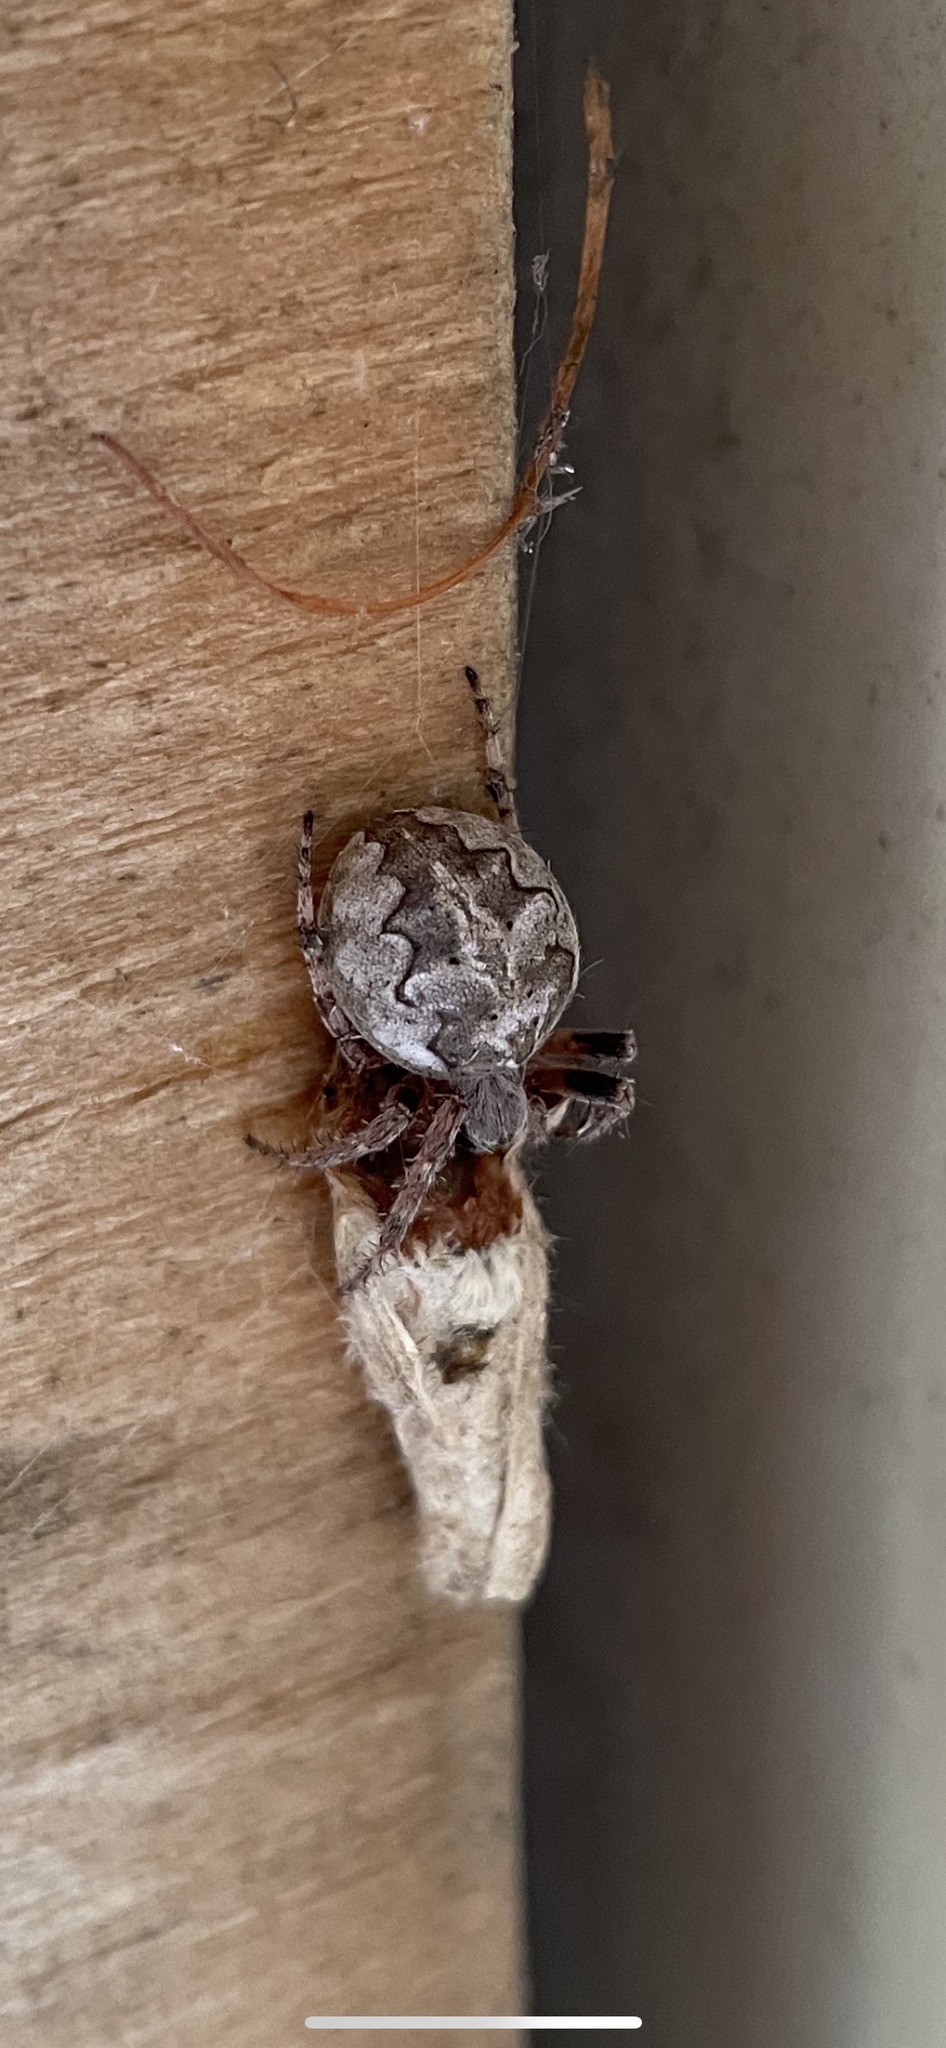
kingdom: Animalia
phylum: Arthropoda
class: Arachnida
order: Araneae
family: Araneidae
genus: Larinioides
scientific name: Larinioides patagiatus
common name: Ornamental orbweaver
